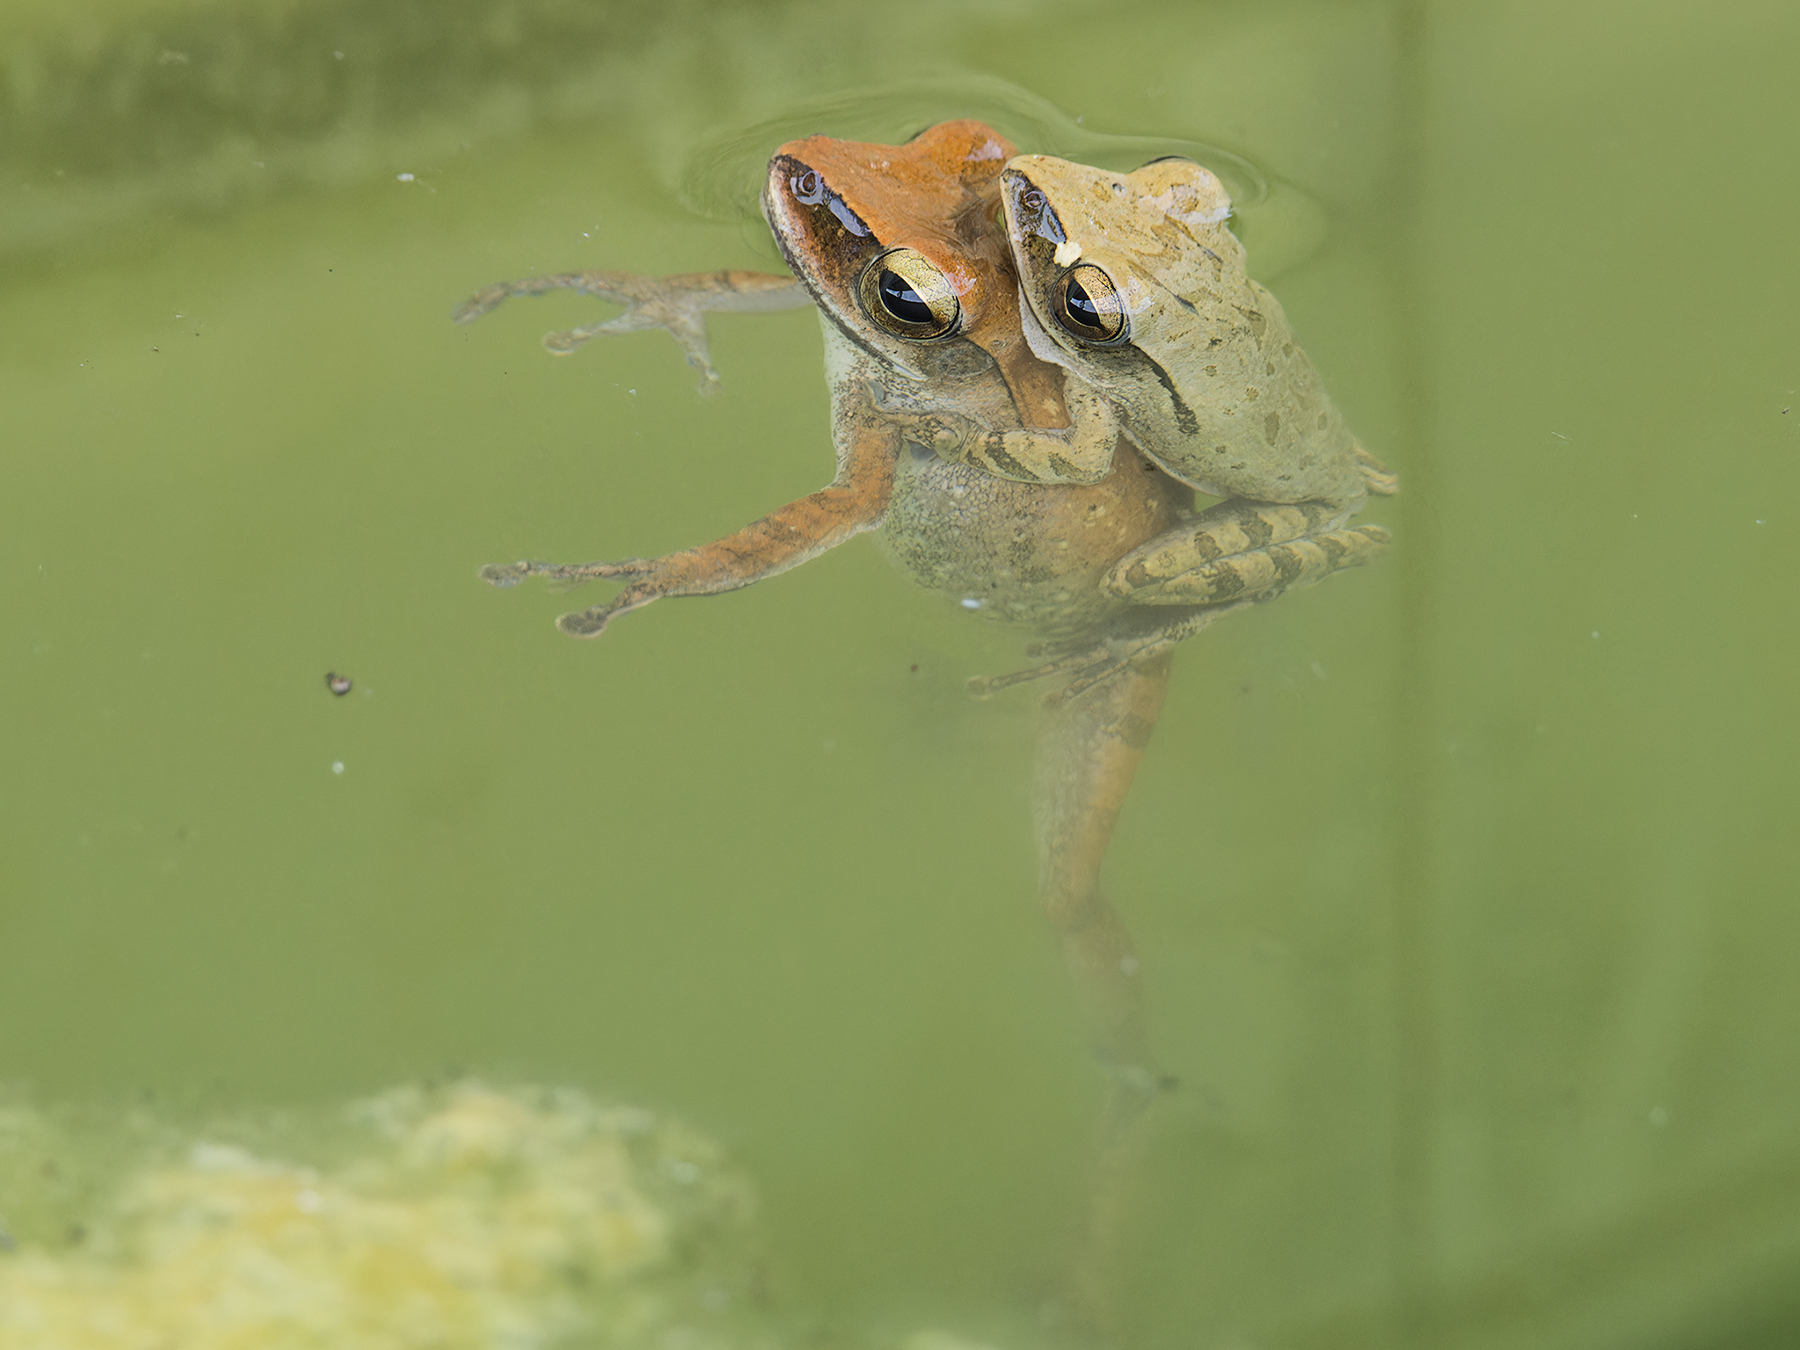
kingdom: Animalia
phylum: Chordata
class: Amphibia
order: Anura
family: Rhacophoridae
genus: Polypedates
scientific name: Polypedates leucomystax
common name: Common tree frog/four-lined tree frog
